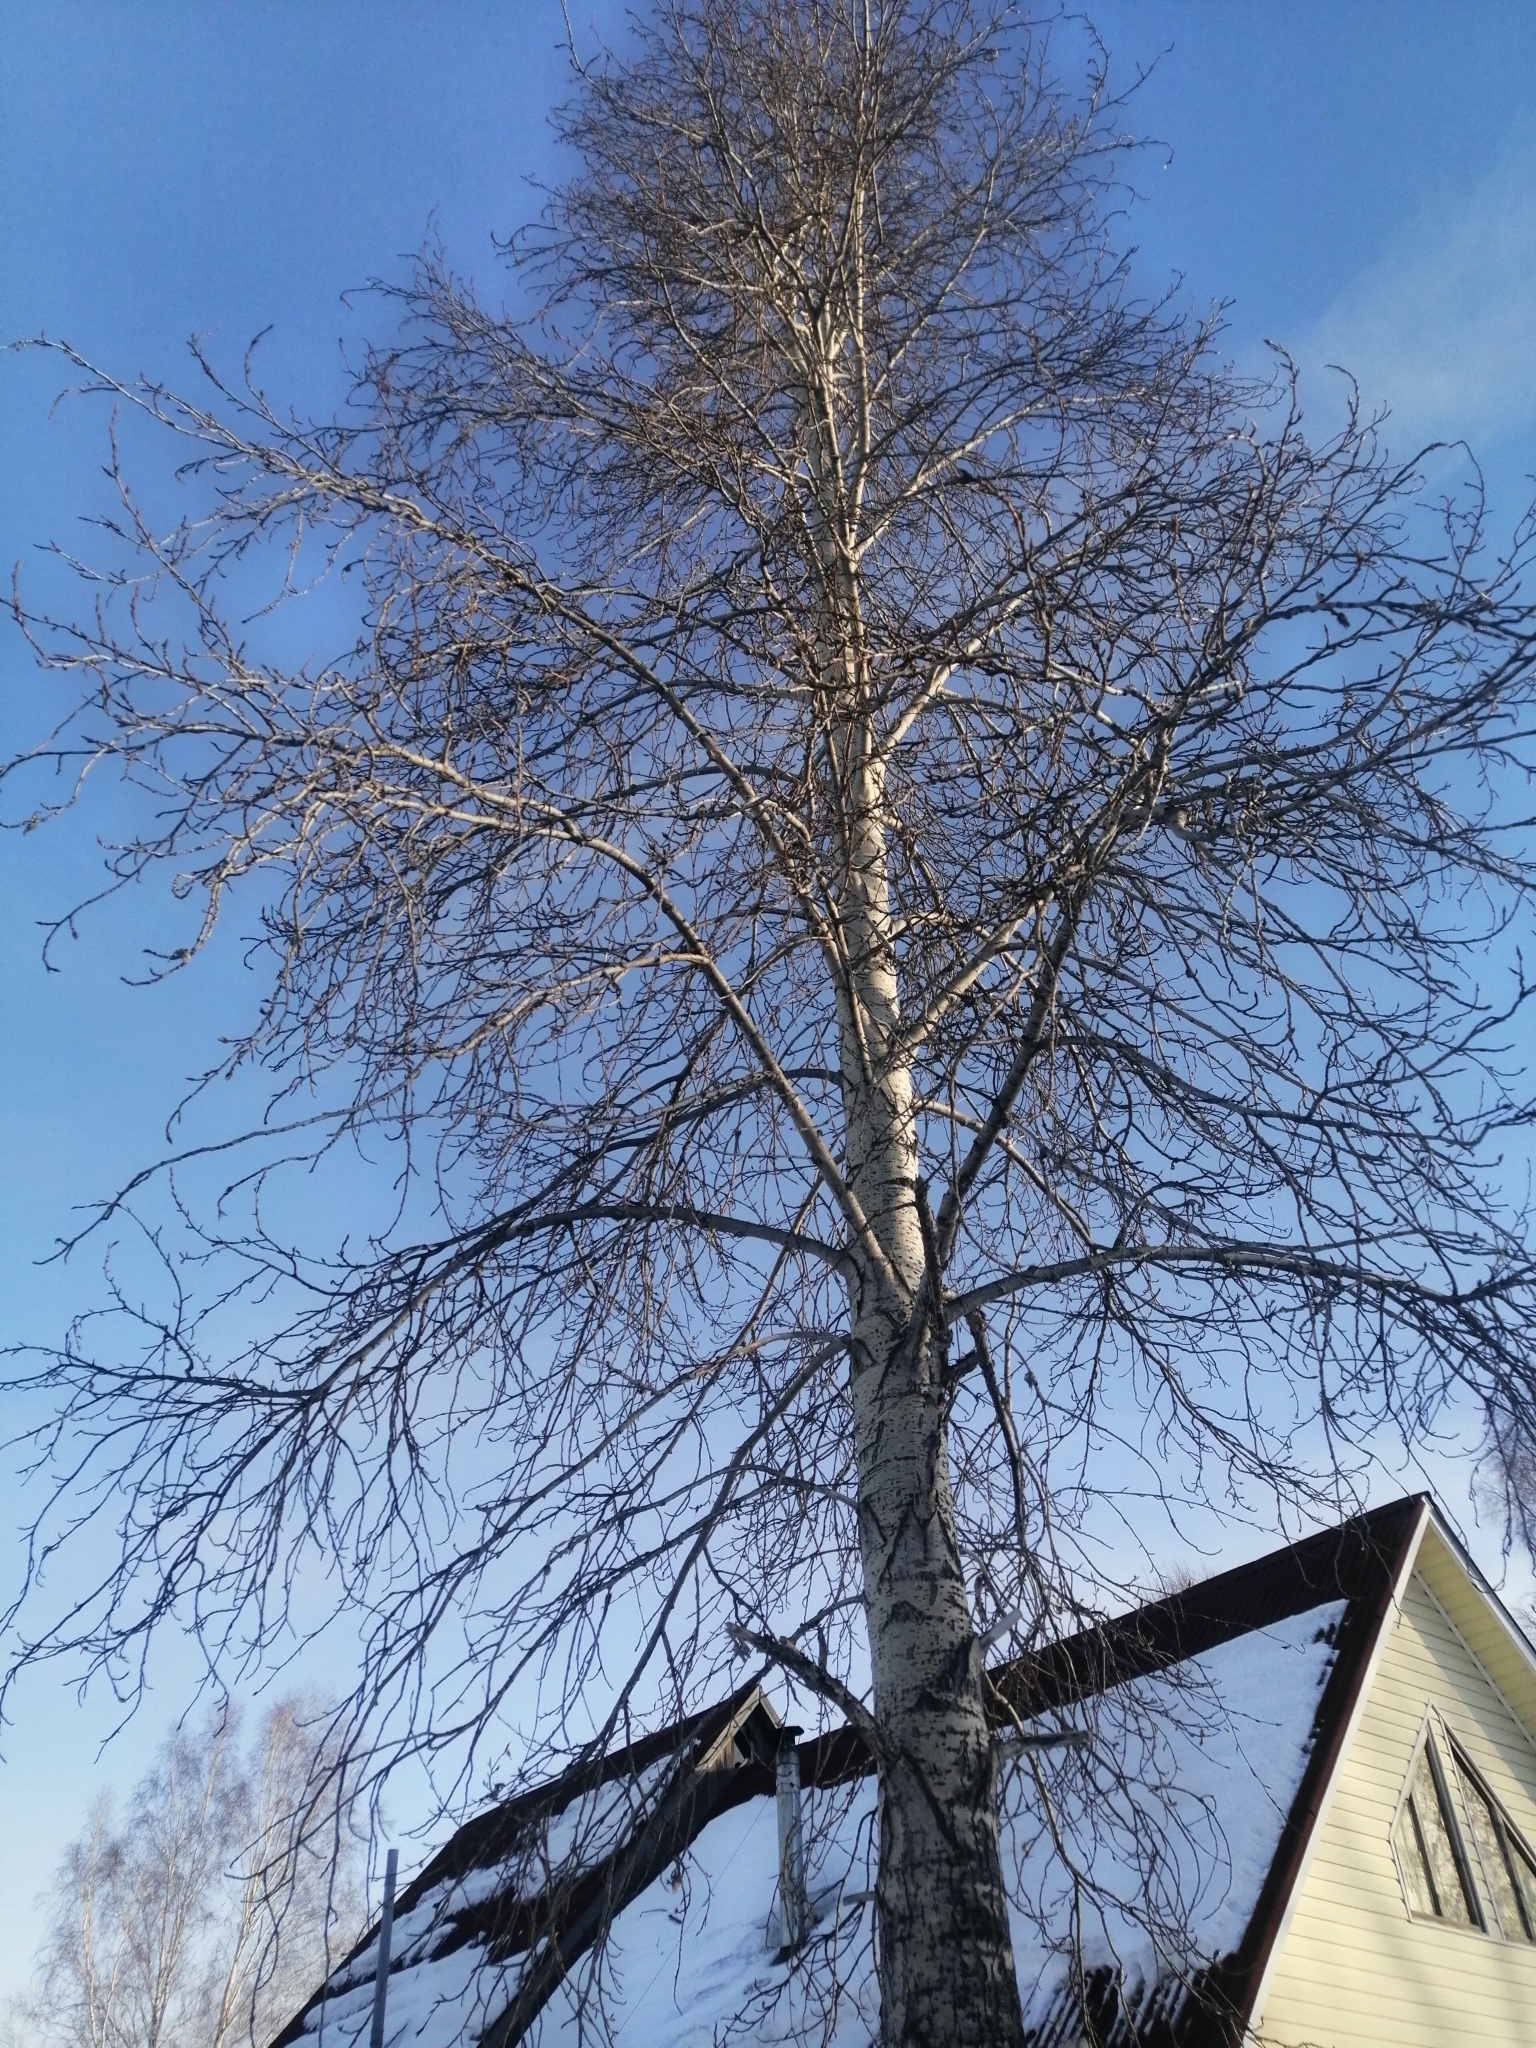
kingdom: Plantae
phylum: Tracheophyta
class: Magnoliopsida
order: Malpighiales
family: Salicaceae
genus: Populus
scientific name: Populus tremula
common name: European aspen
